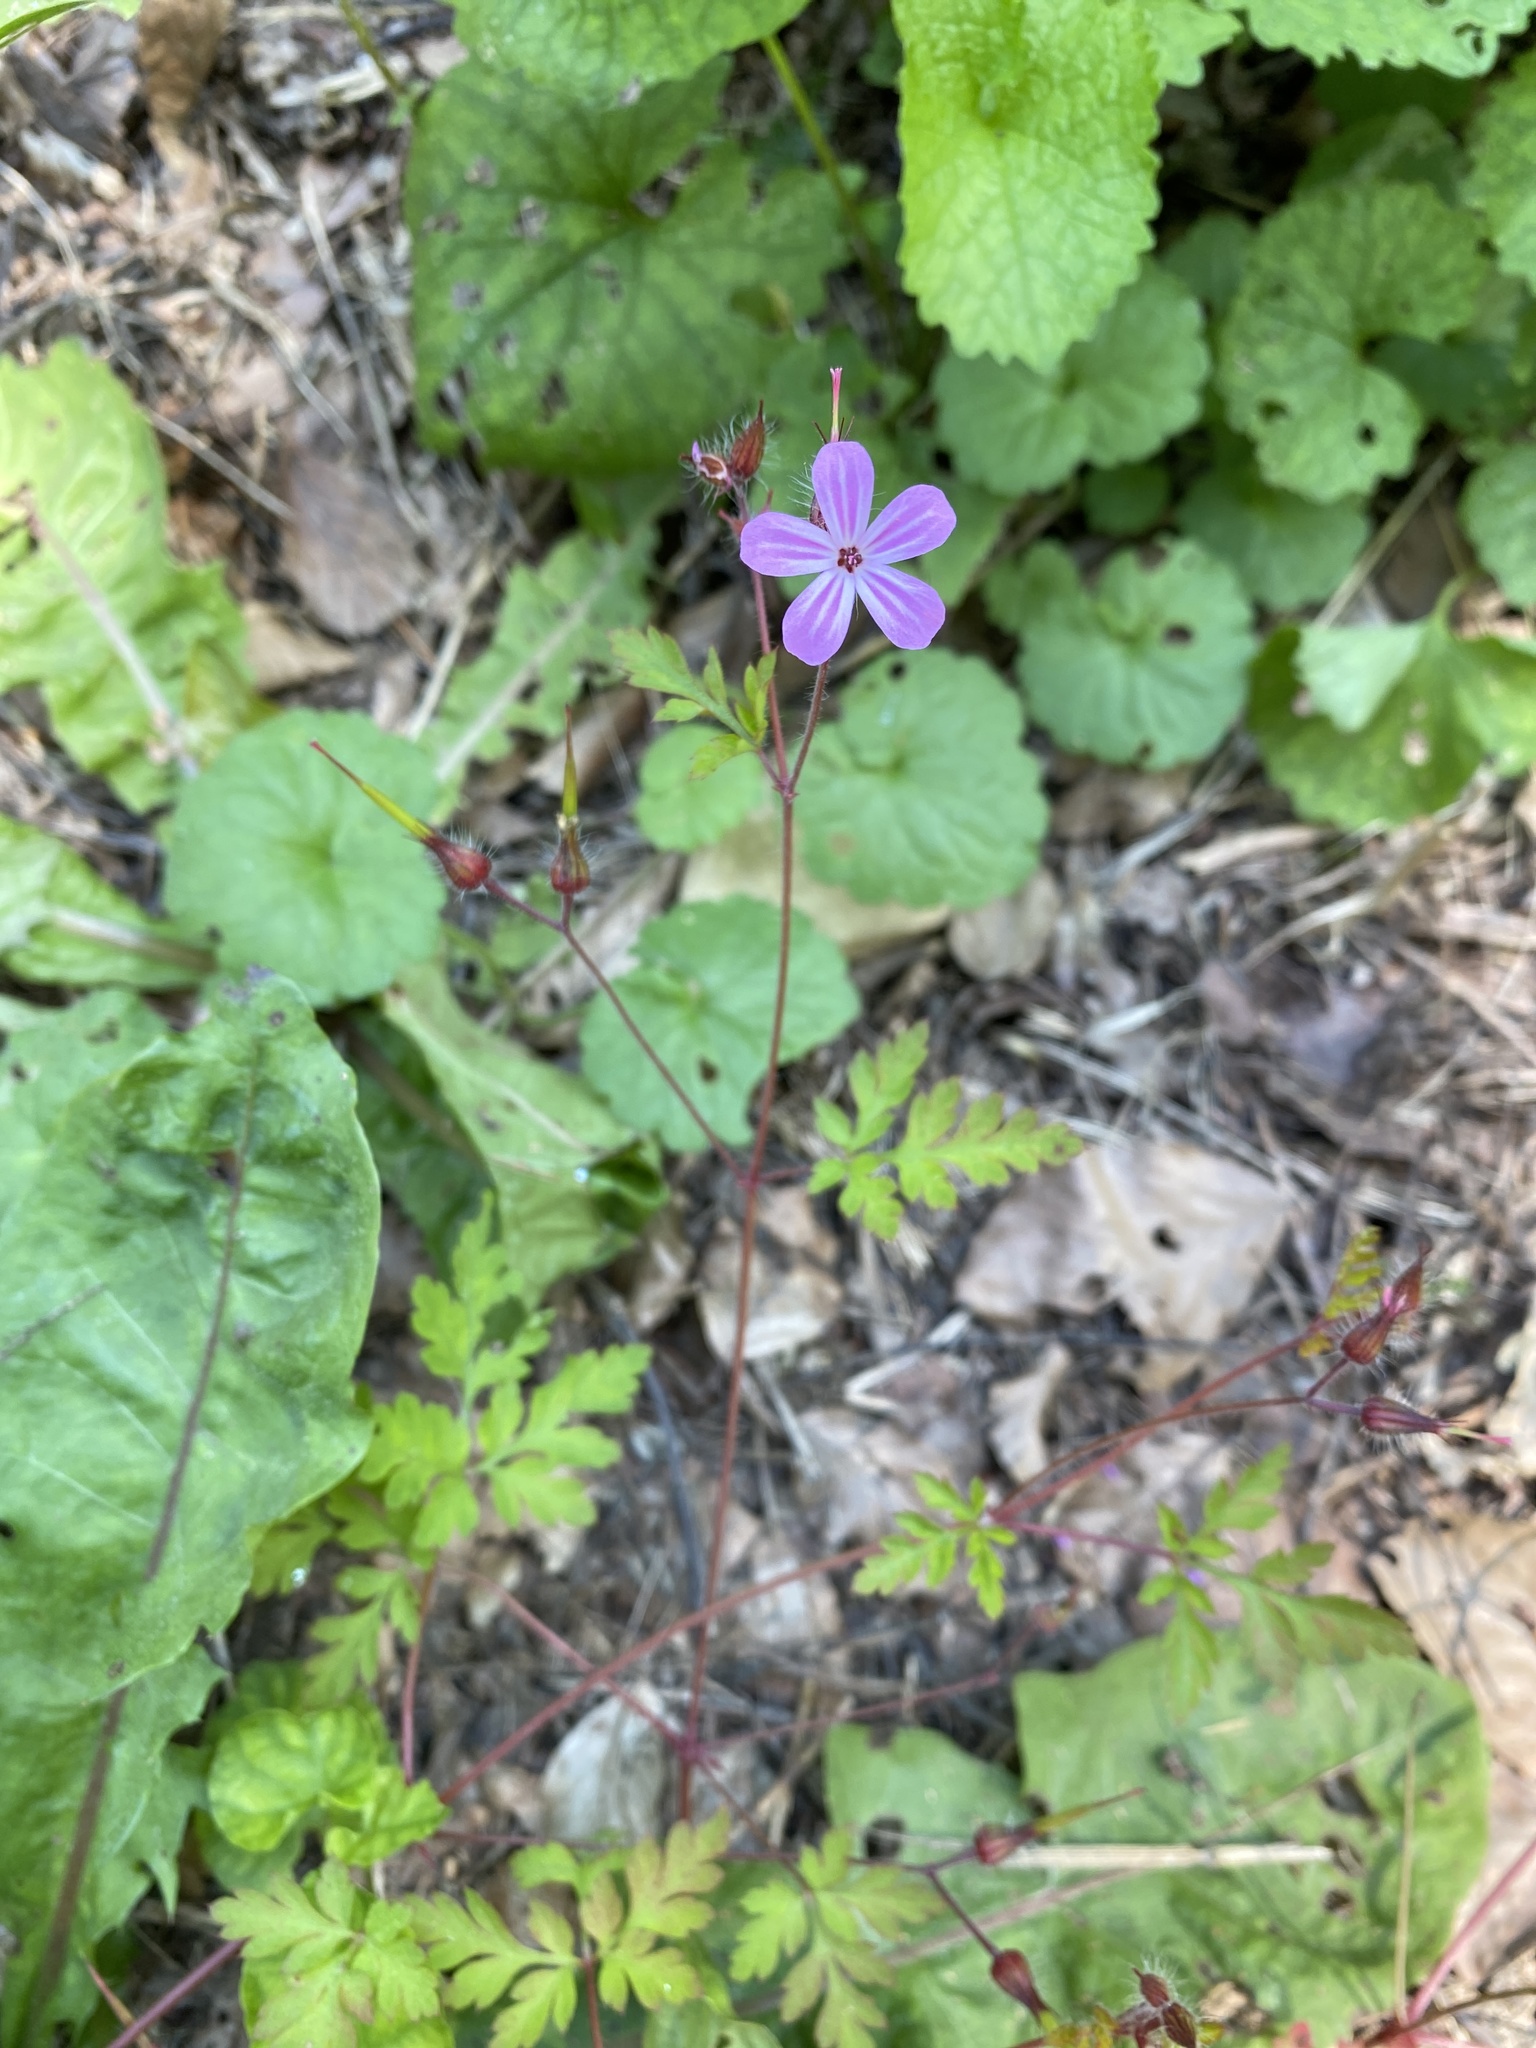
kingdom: Plantae
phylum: Tracheophyta
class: Magnoliopsida
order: Geraniales
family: Geraniaceae
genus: Geranium
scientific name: Geranium robertianum
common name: Herb-robert
